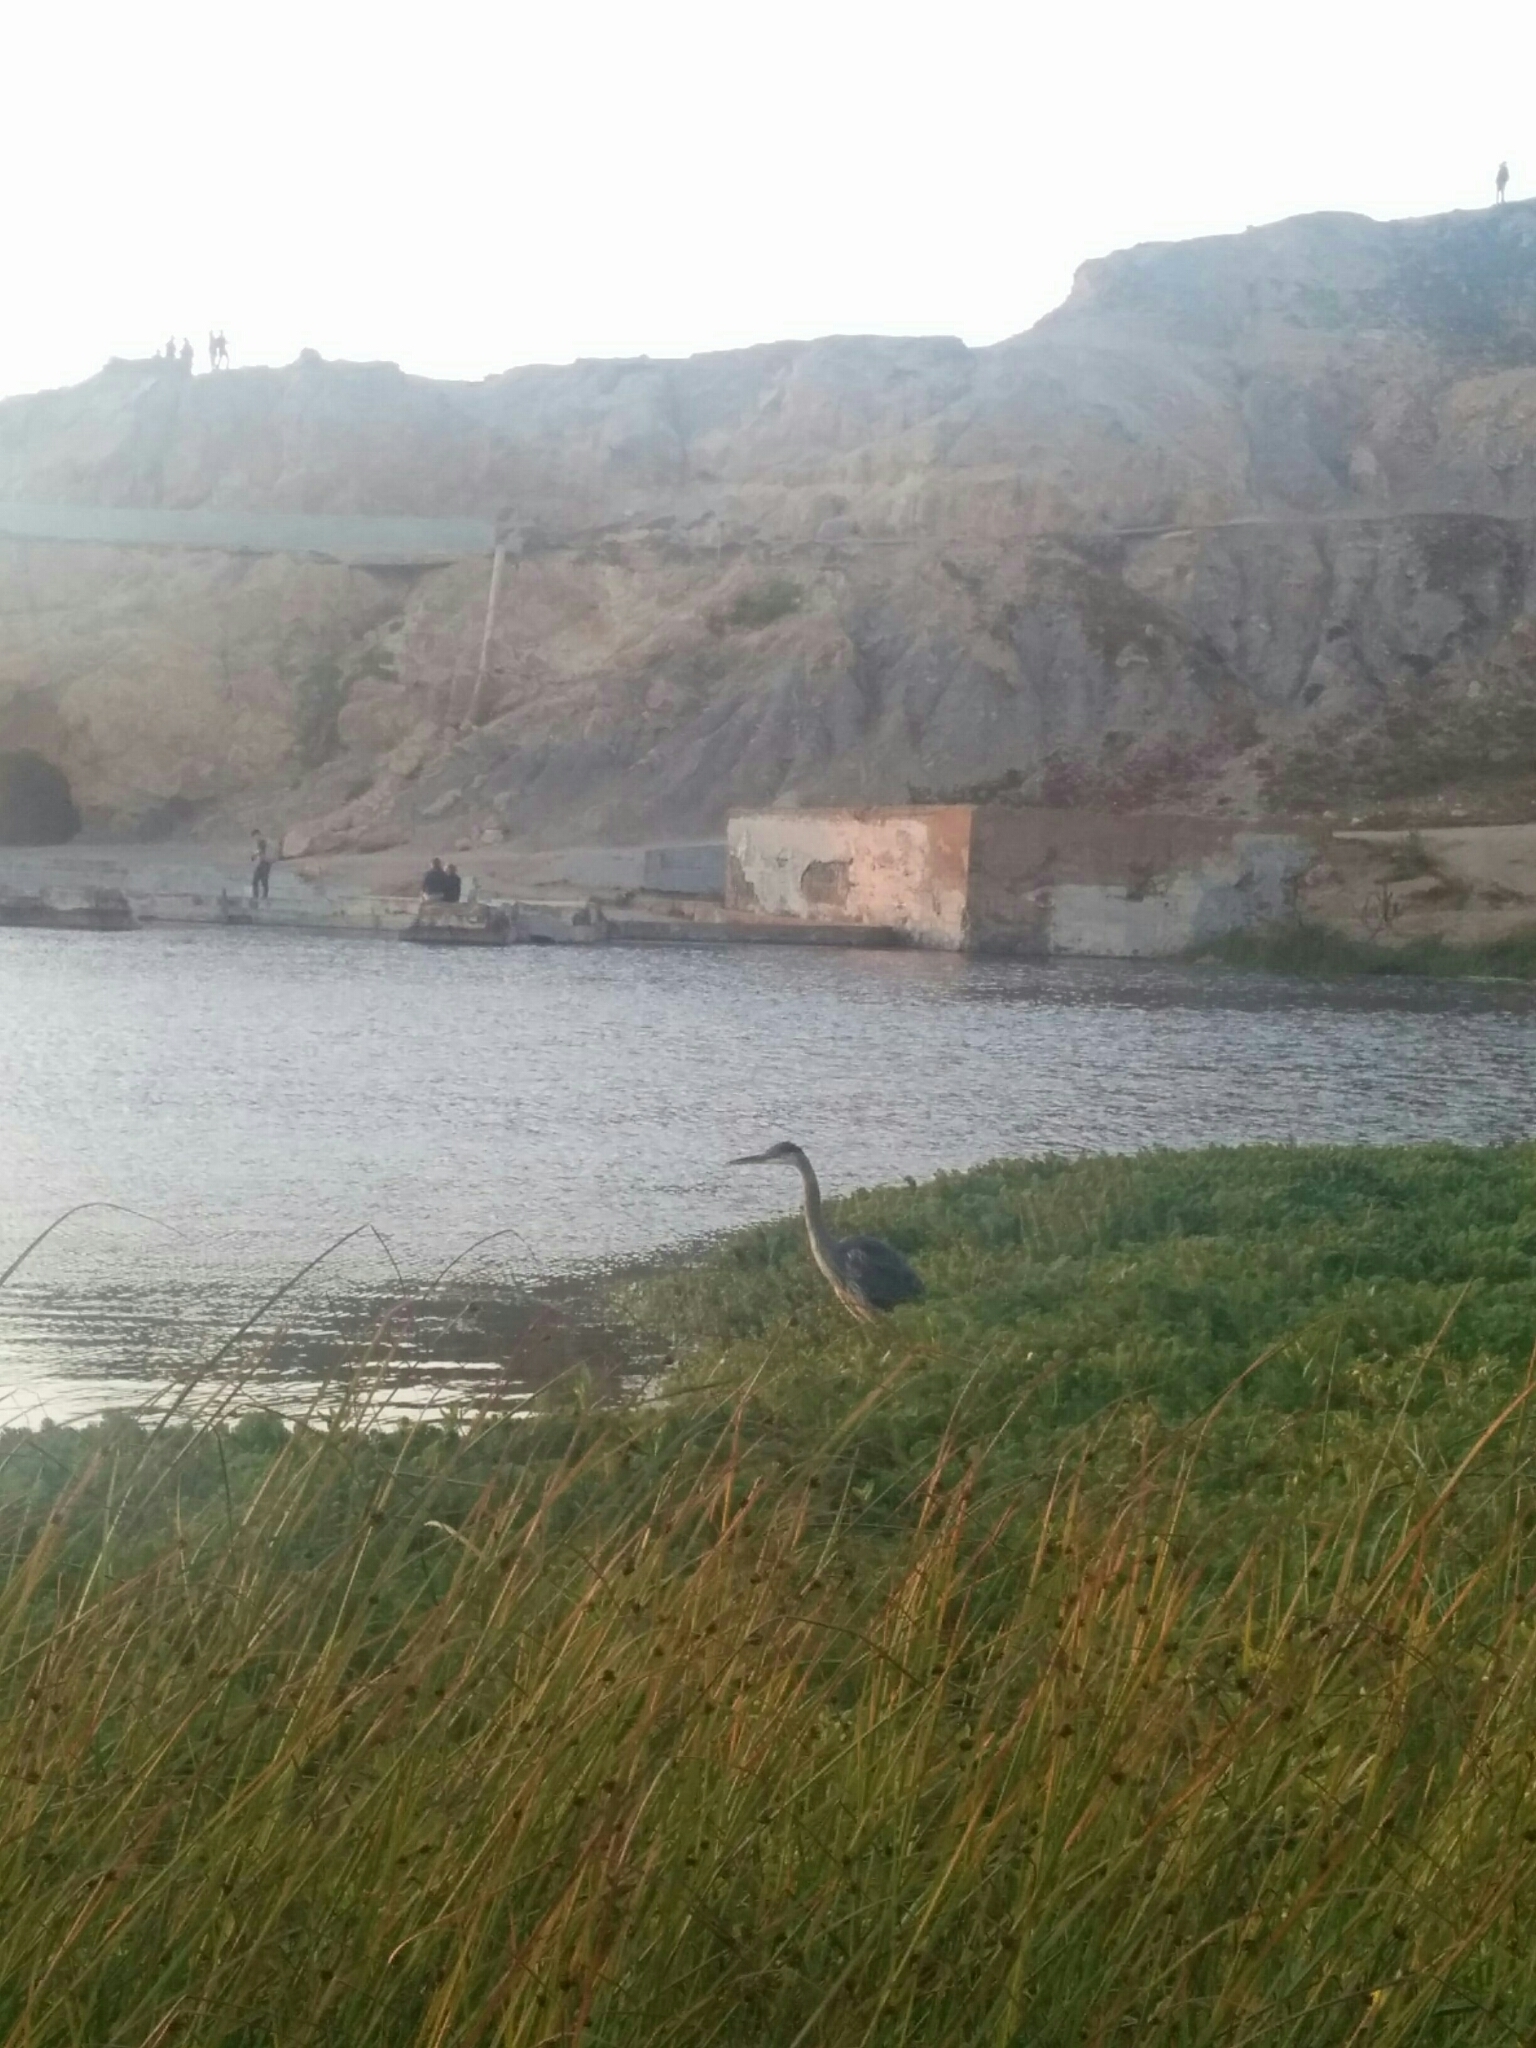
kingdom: Animalia
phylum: Chordata
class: Aves
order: Pelecaniformes
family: Ardeidae
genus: Ardea
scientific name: Ardea herodias
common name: Great blue heron
